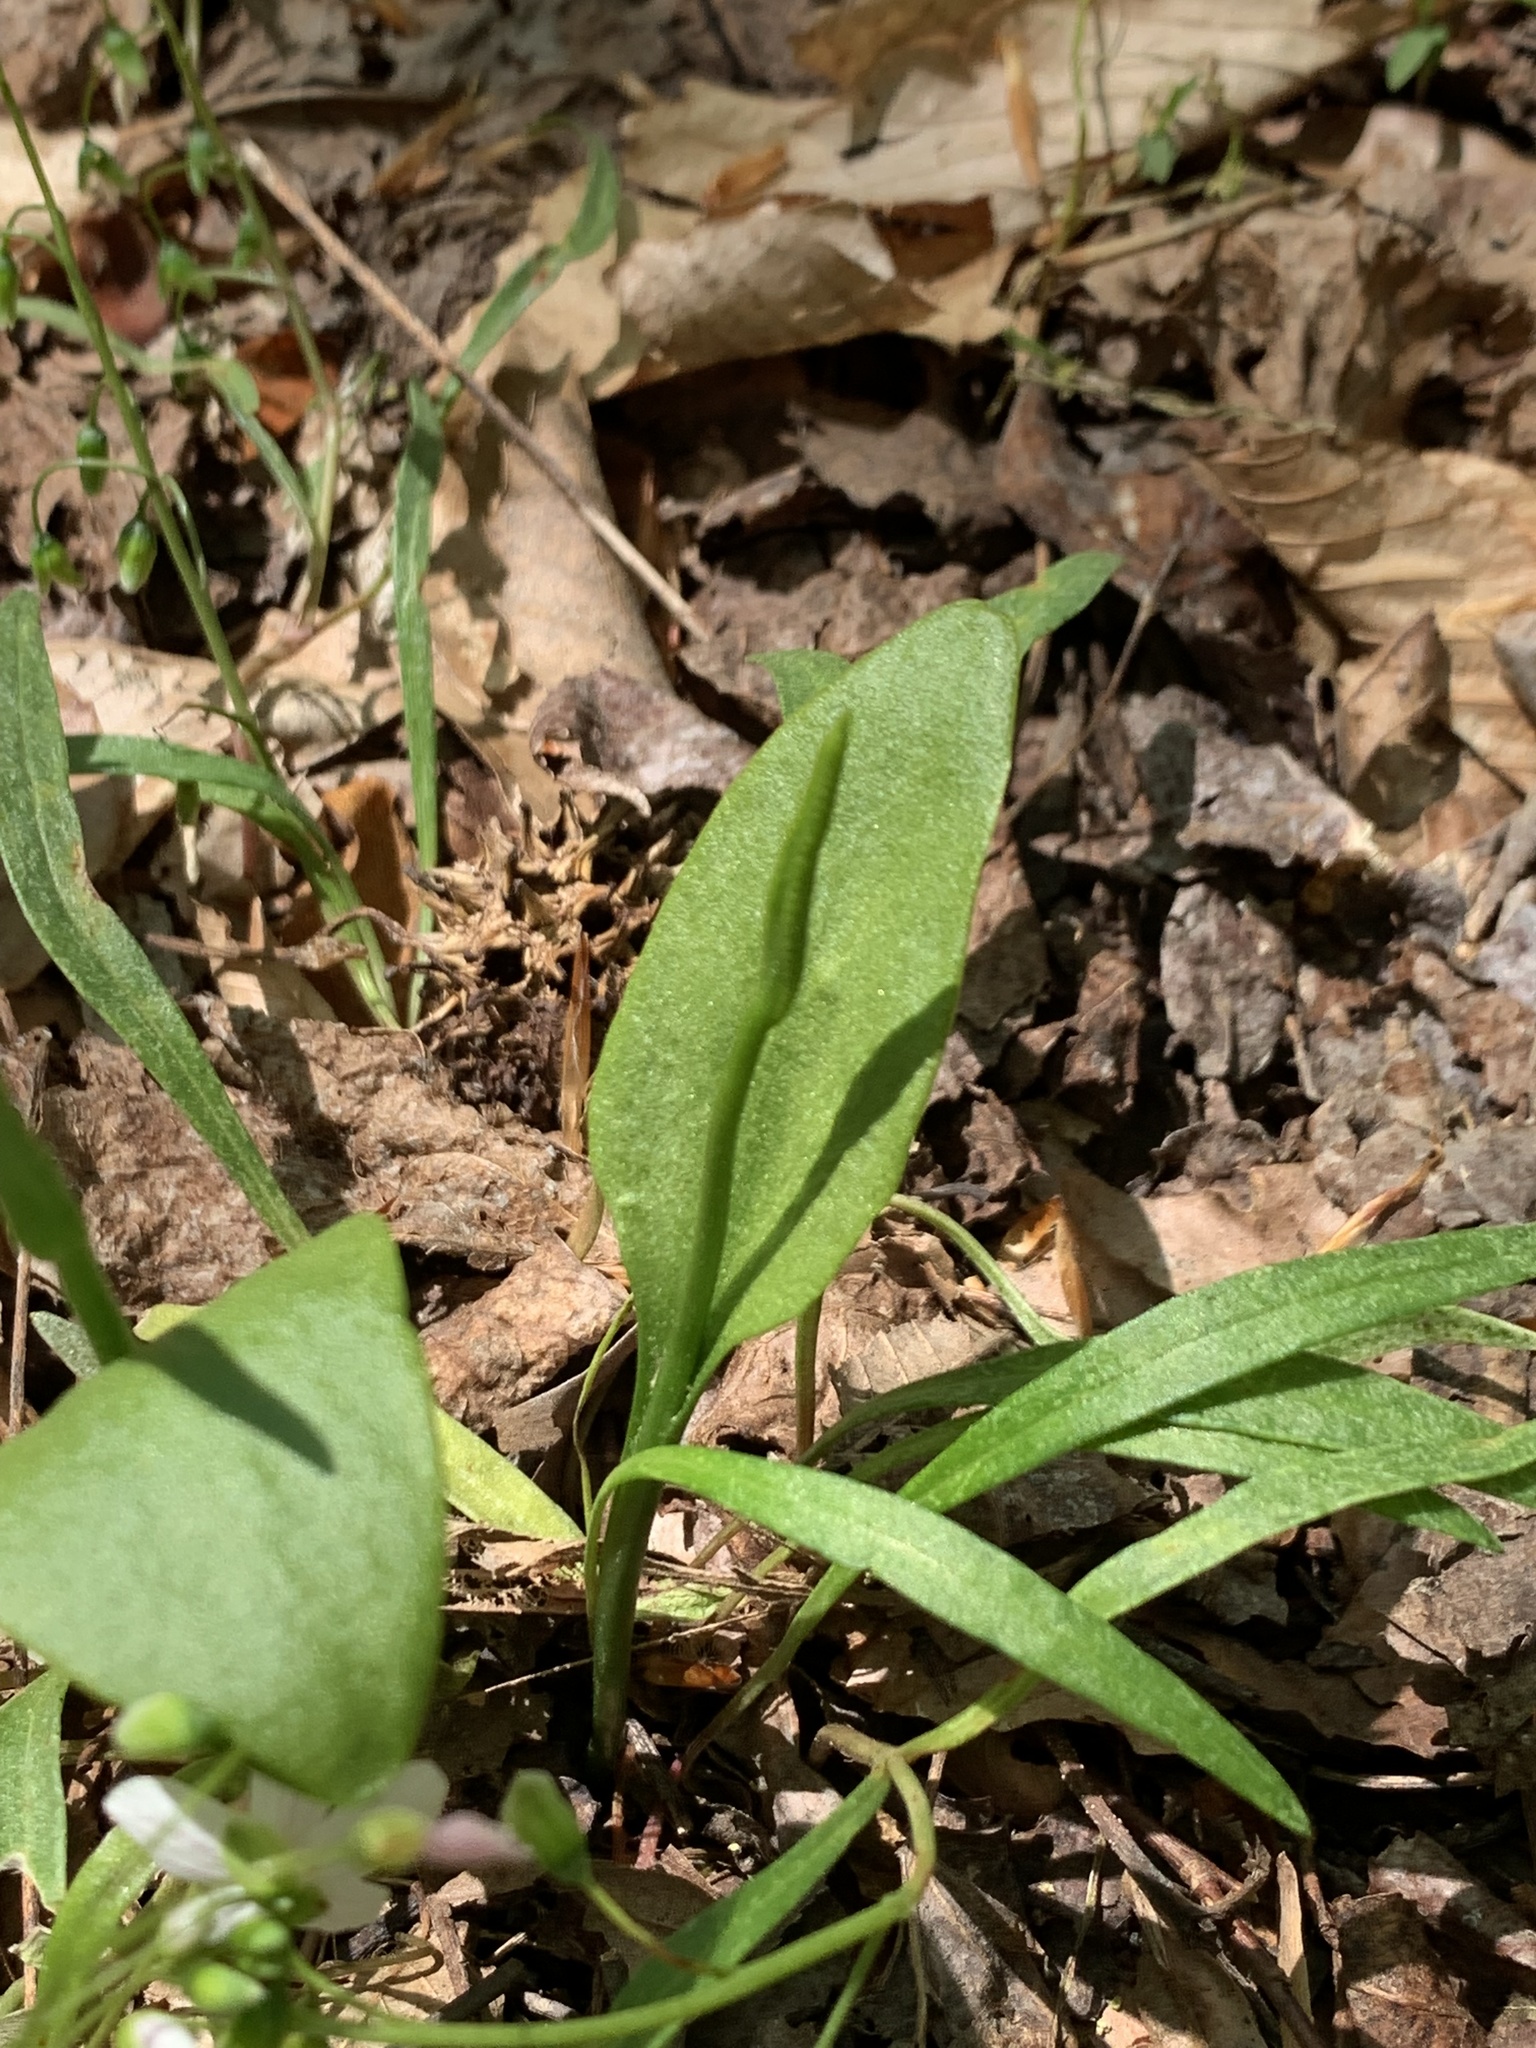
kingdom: Plantae
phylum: Tracheophyta
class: Polypodiopsida
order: Ophioglossales
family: Ophioglossaceae
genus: Ophioglossum
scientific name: Ophioglossum vulgatum
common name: Adder's-tongue
